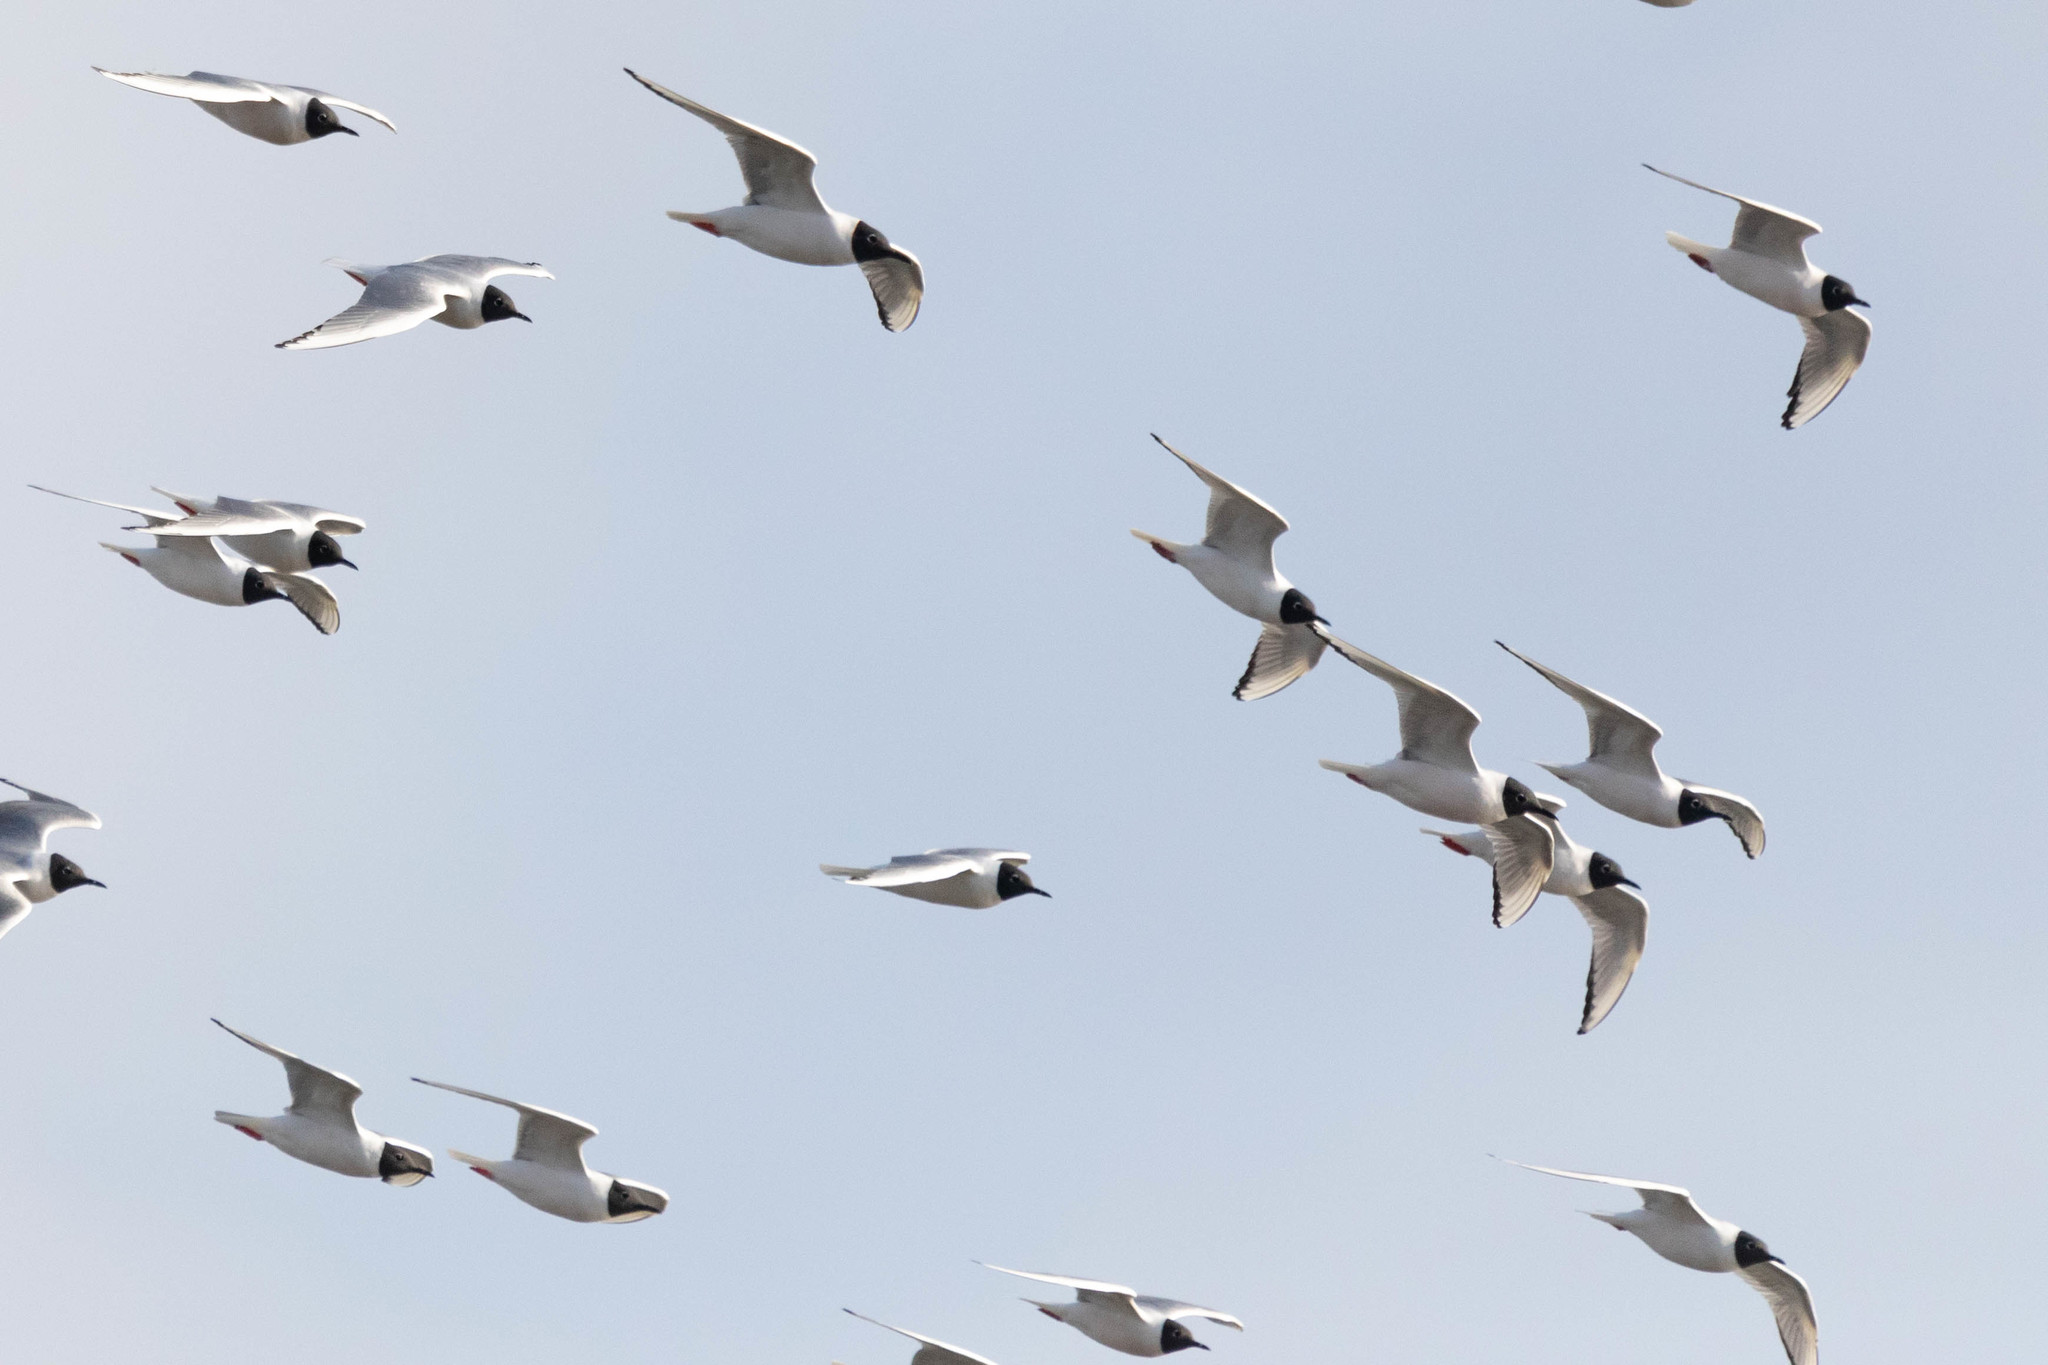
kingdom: Animalia
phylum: Chordata
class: Aves
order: Charadriiformes
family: Laridae
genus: Chroicocephalus
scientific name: Chroicocephalus philadelphia
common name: Bonaparte's gull
